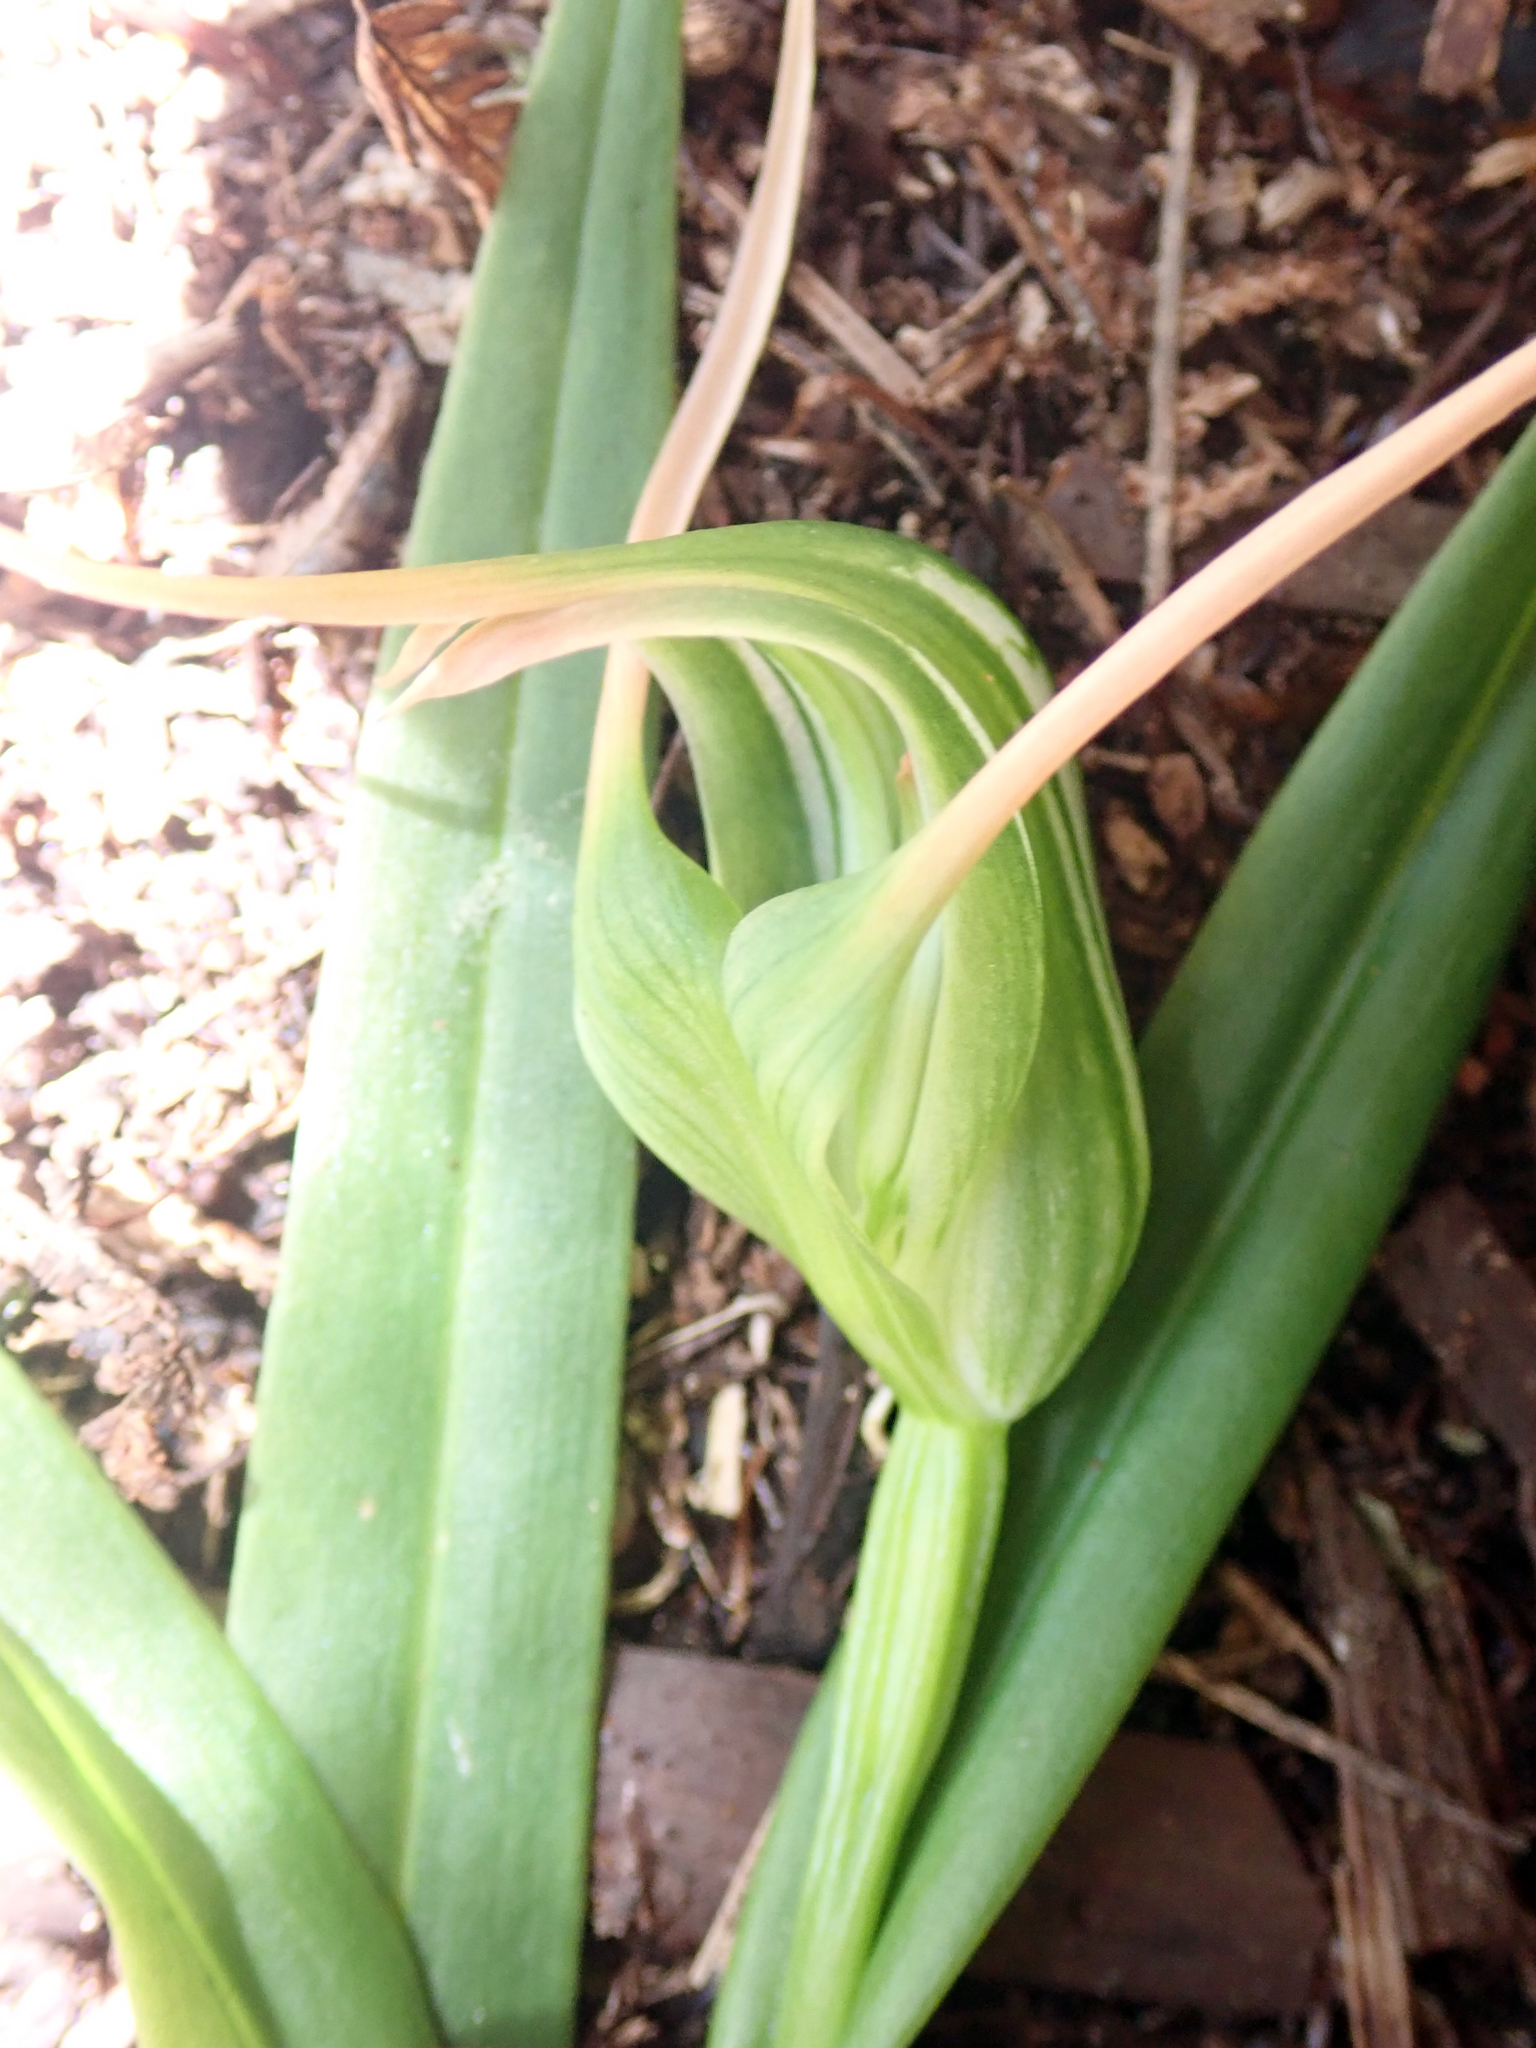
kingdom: Plantae
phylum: Tracheophyta
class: Liliopsida
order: Asparagales
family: Orchidaceae
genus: Pterostylis
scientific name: Pterostylis banksii
